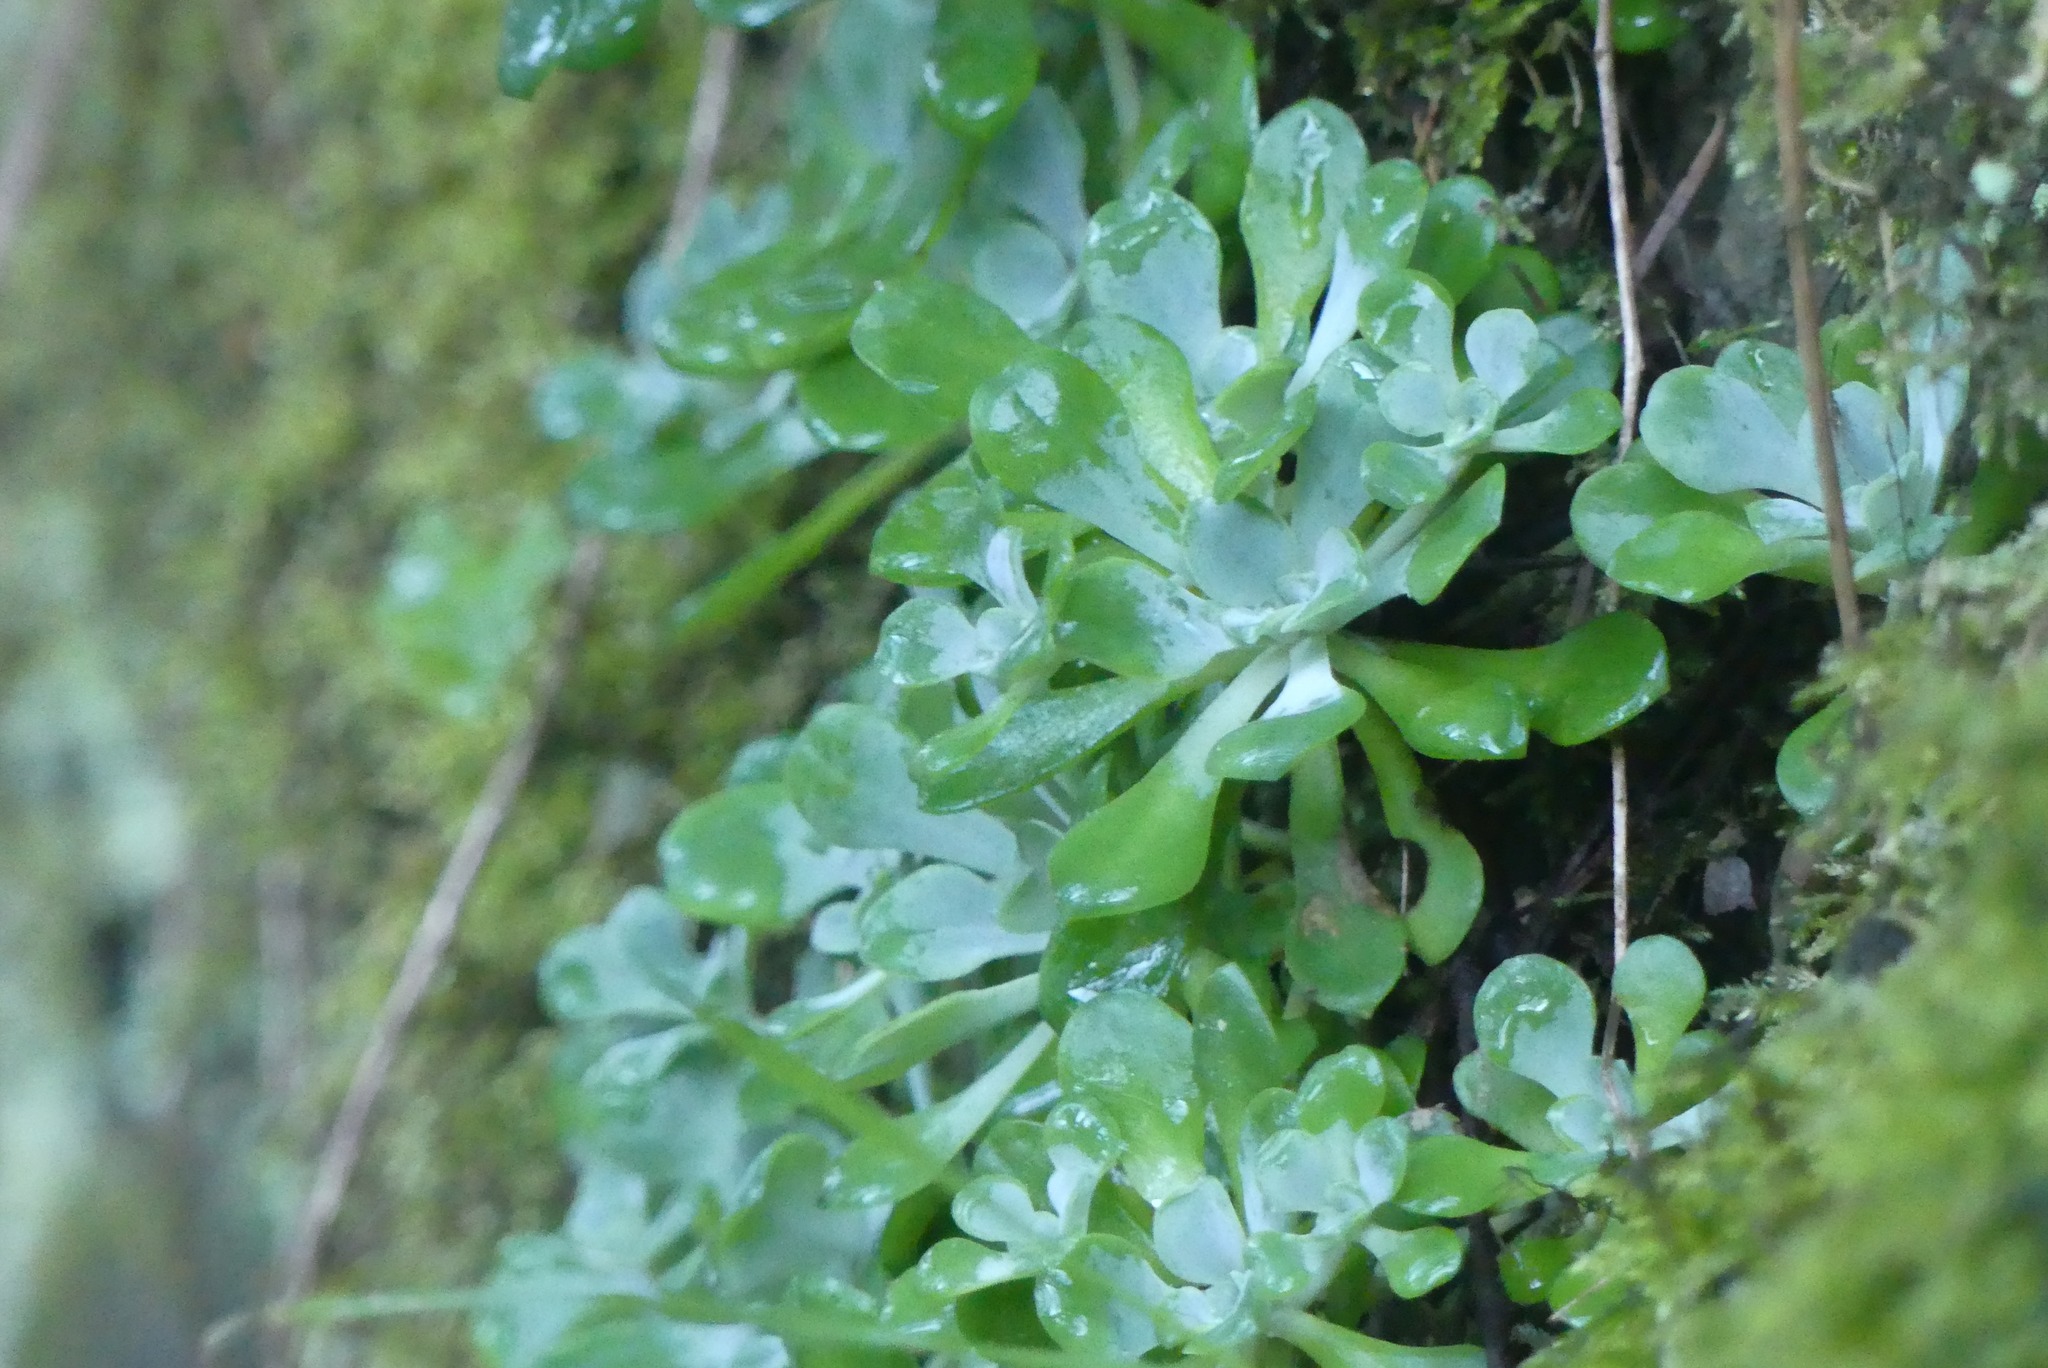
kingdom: Plantae
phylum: Tracheophyta
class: Magnoliopsida
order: Saxifragales
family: Crassulaceae
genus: Sedum
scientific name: Sedum spathulifolium
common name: Colorado stonecrop
